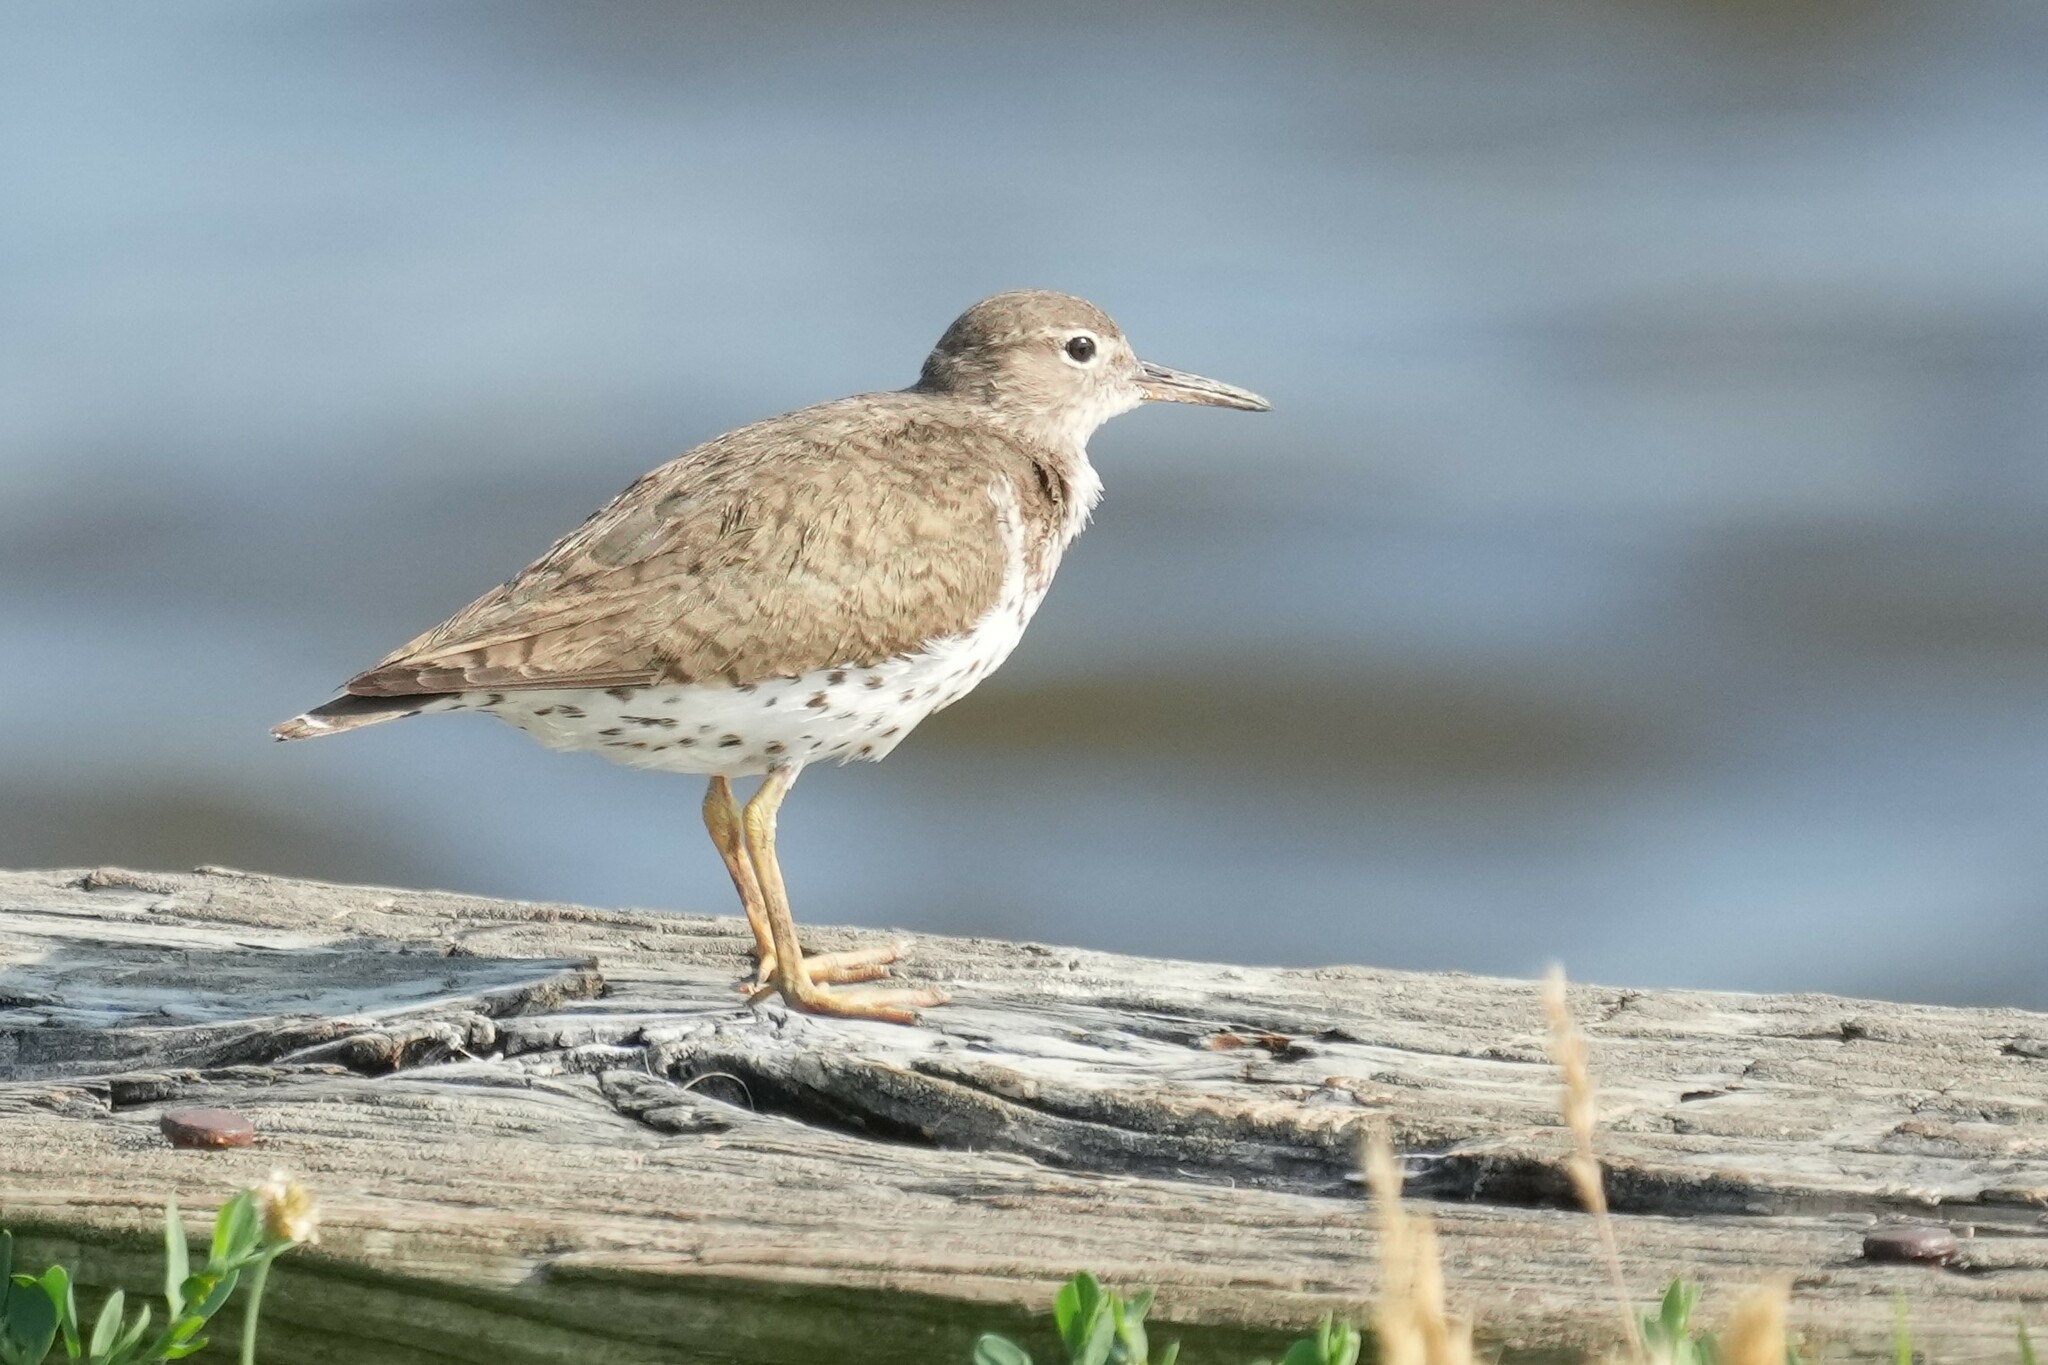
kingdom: Animalia
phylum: Chordata
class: Aves
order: Charadriiformes
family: Scolopacidae
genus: Actitis
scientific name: Actitis macularius
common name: Spotted sandpiper
